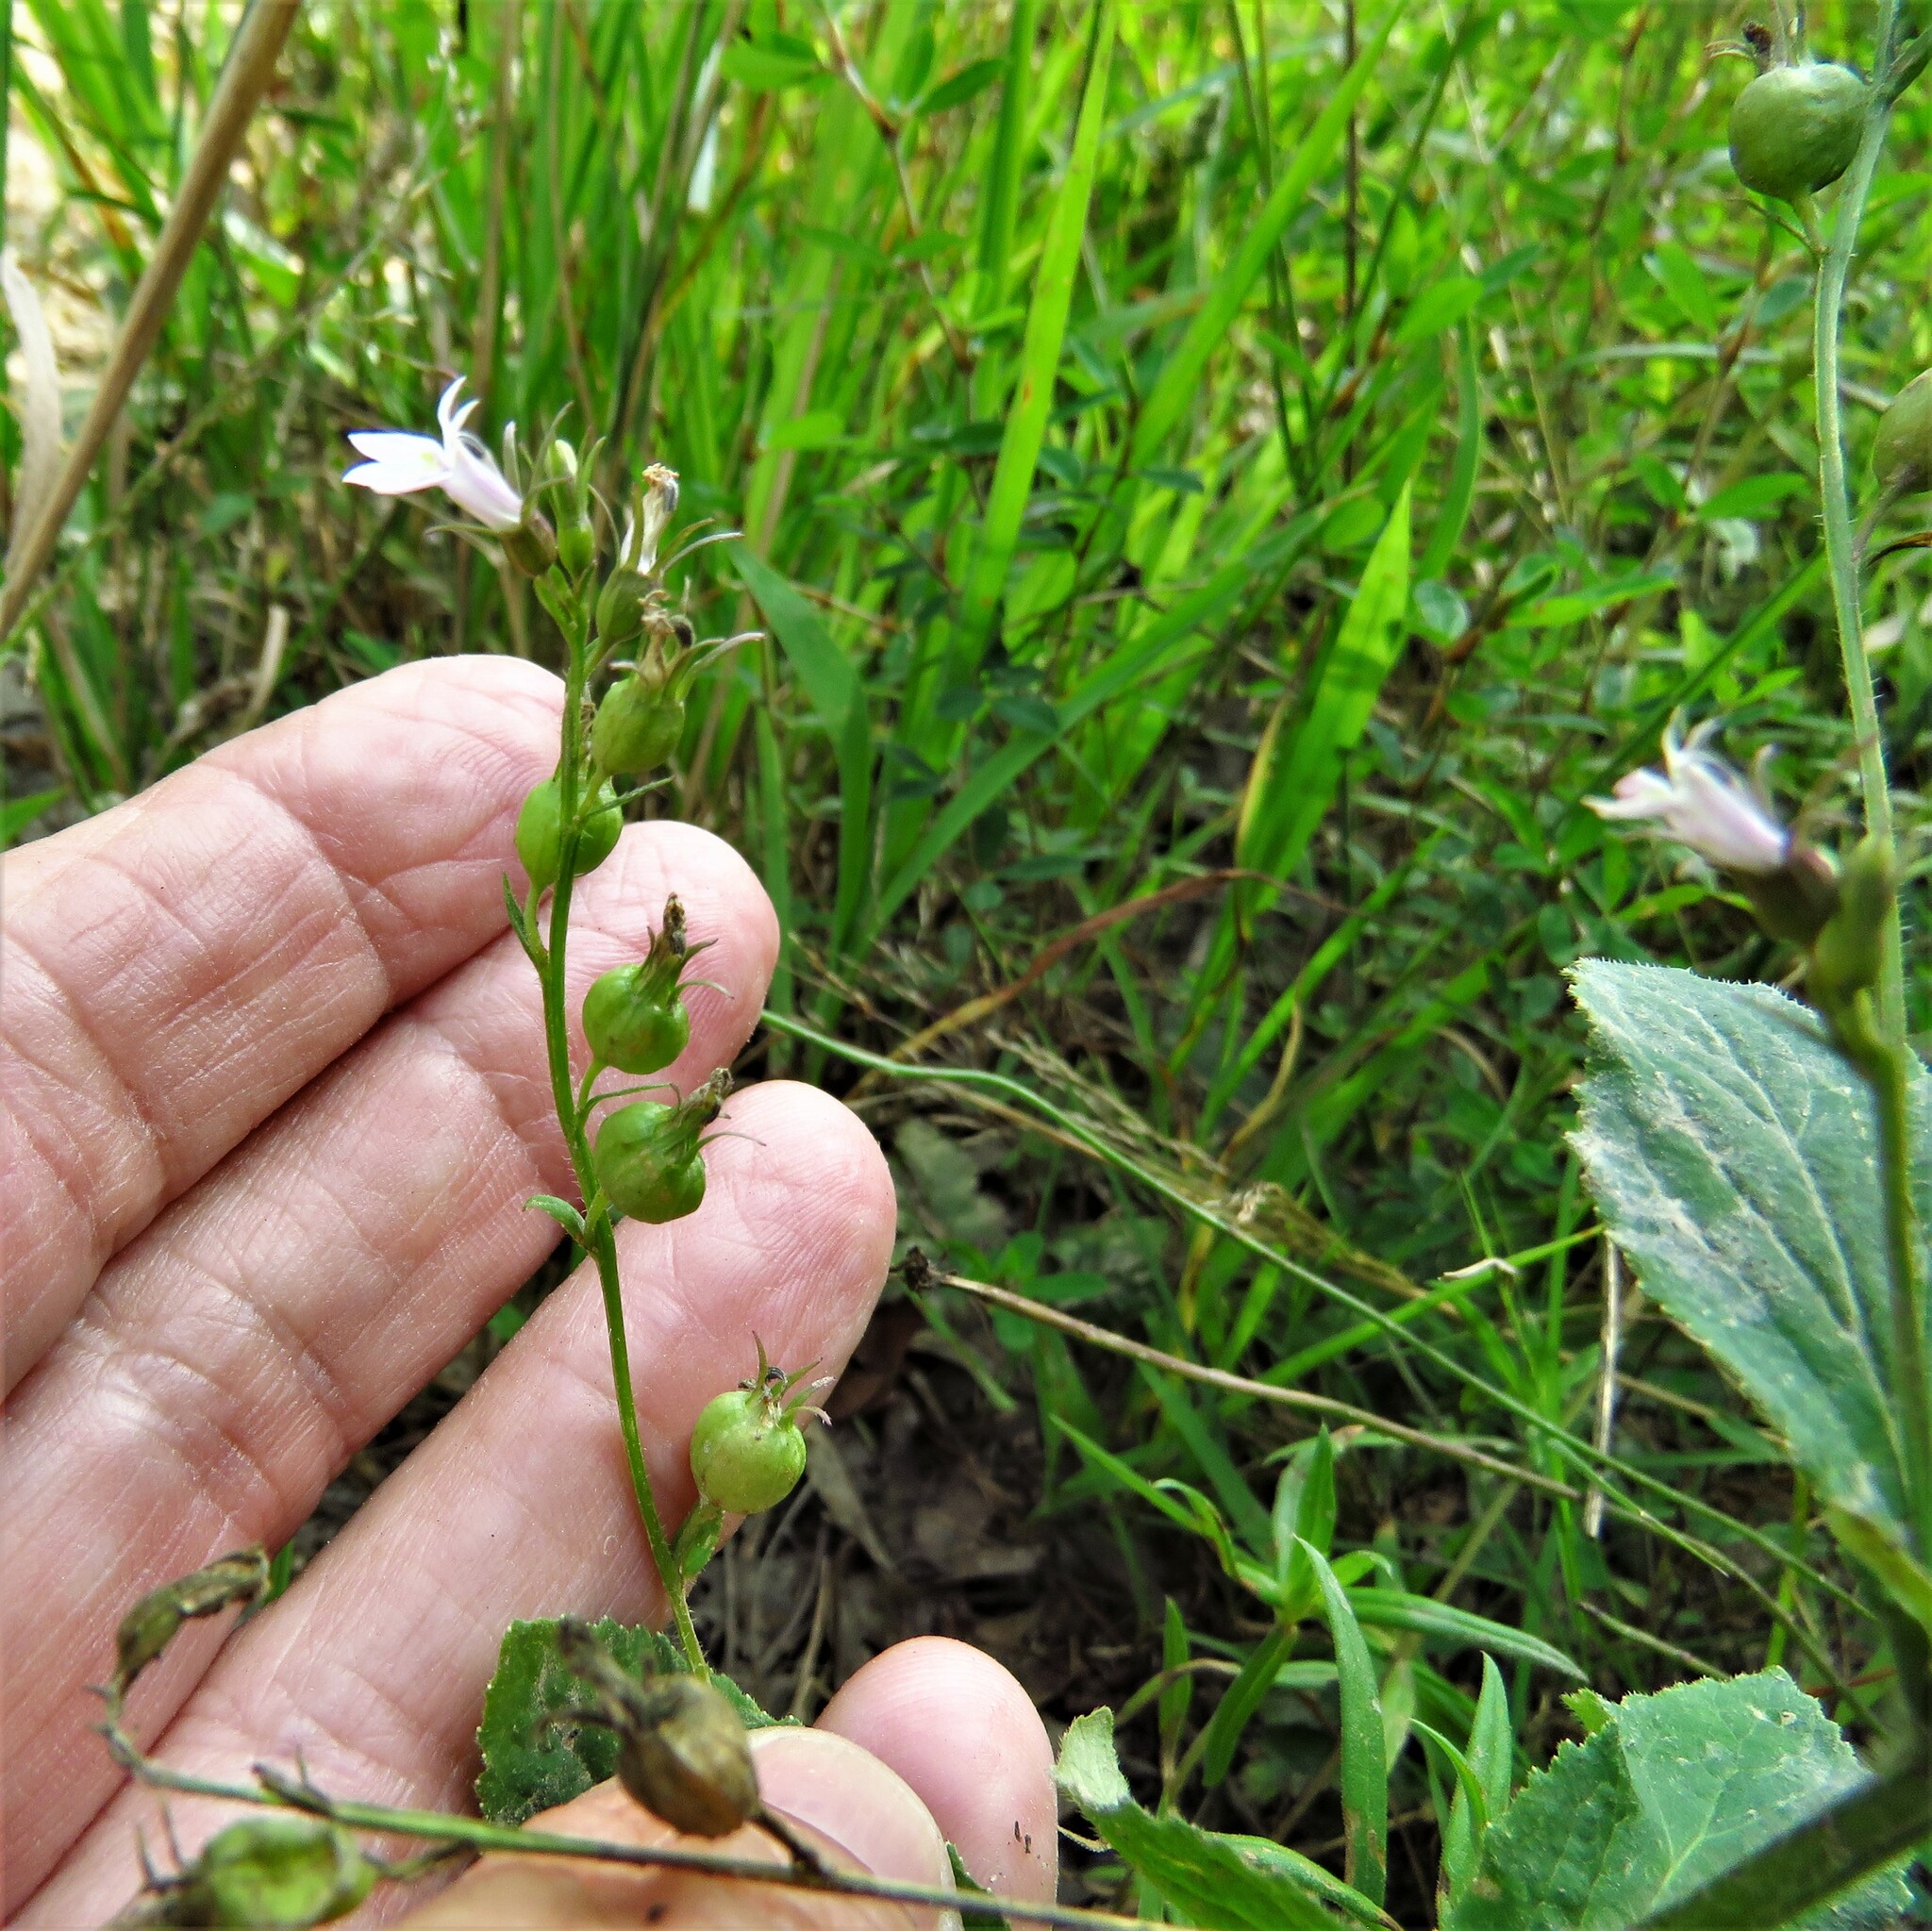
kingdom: Plantae
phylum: Tracheophyta
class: Magnoliopsida
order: Asterales
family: Campanulaceae
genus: Lobelia
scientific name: Lobelia inflata
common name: Indian tobacco
